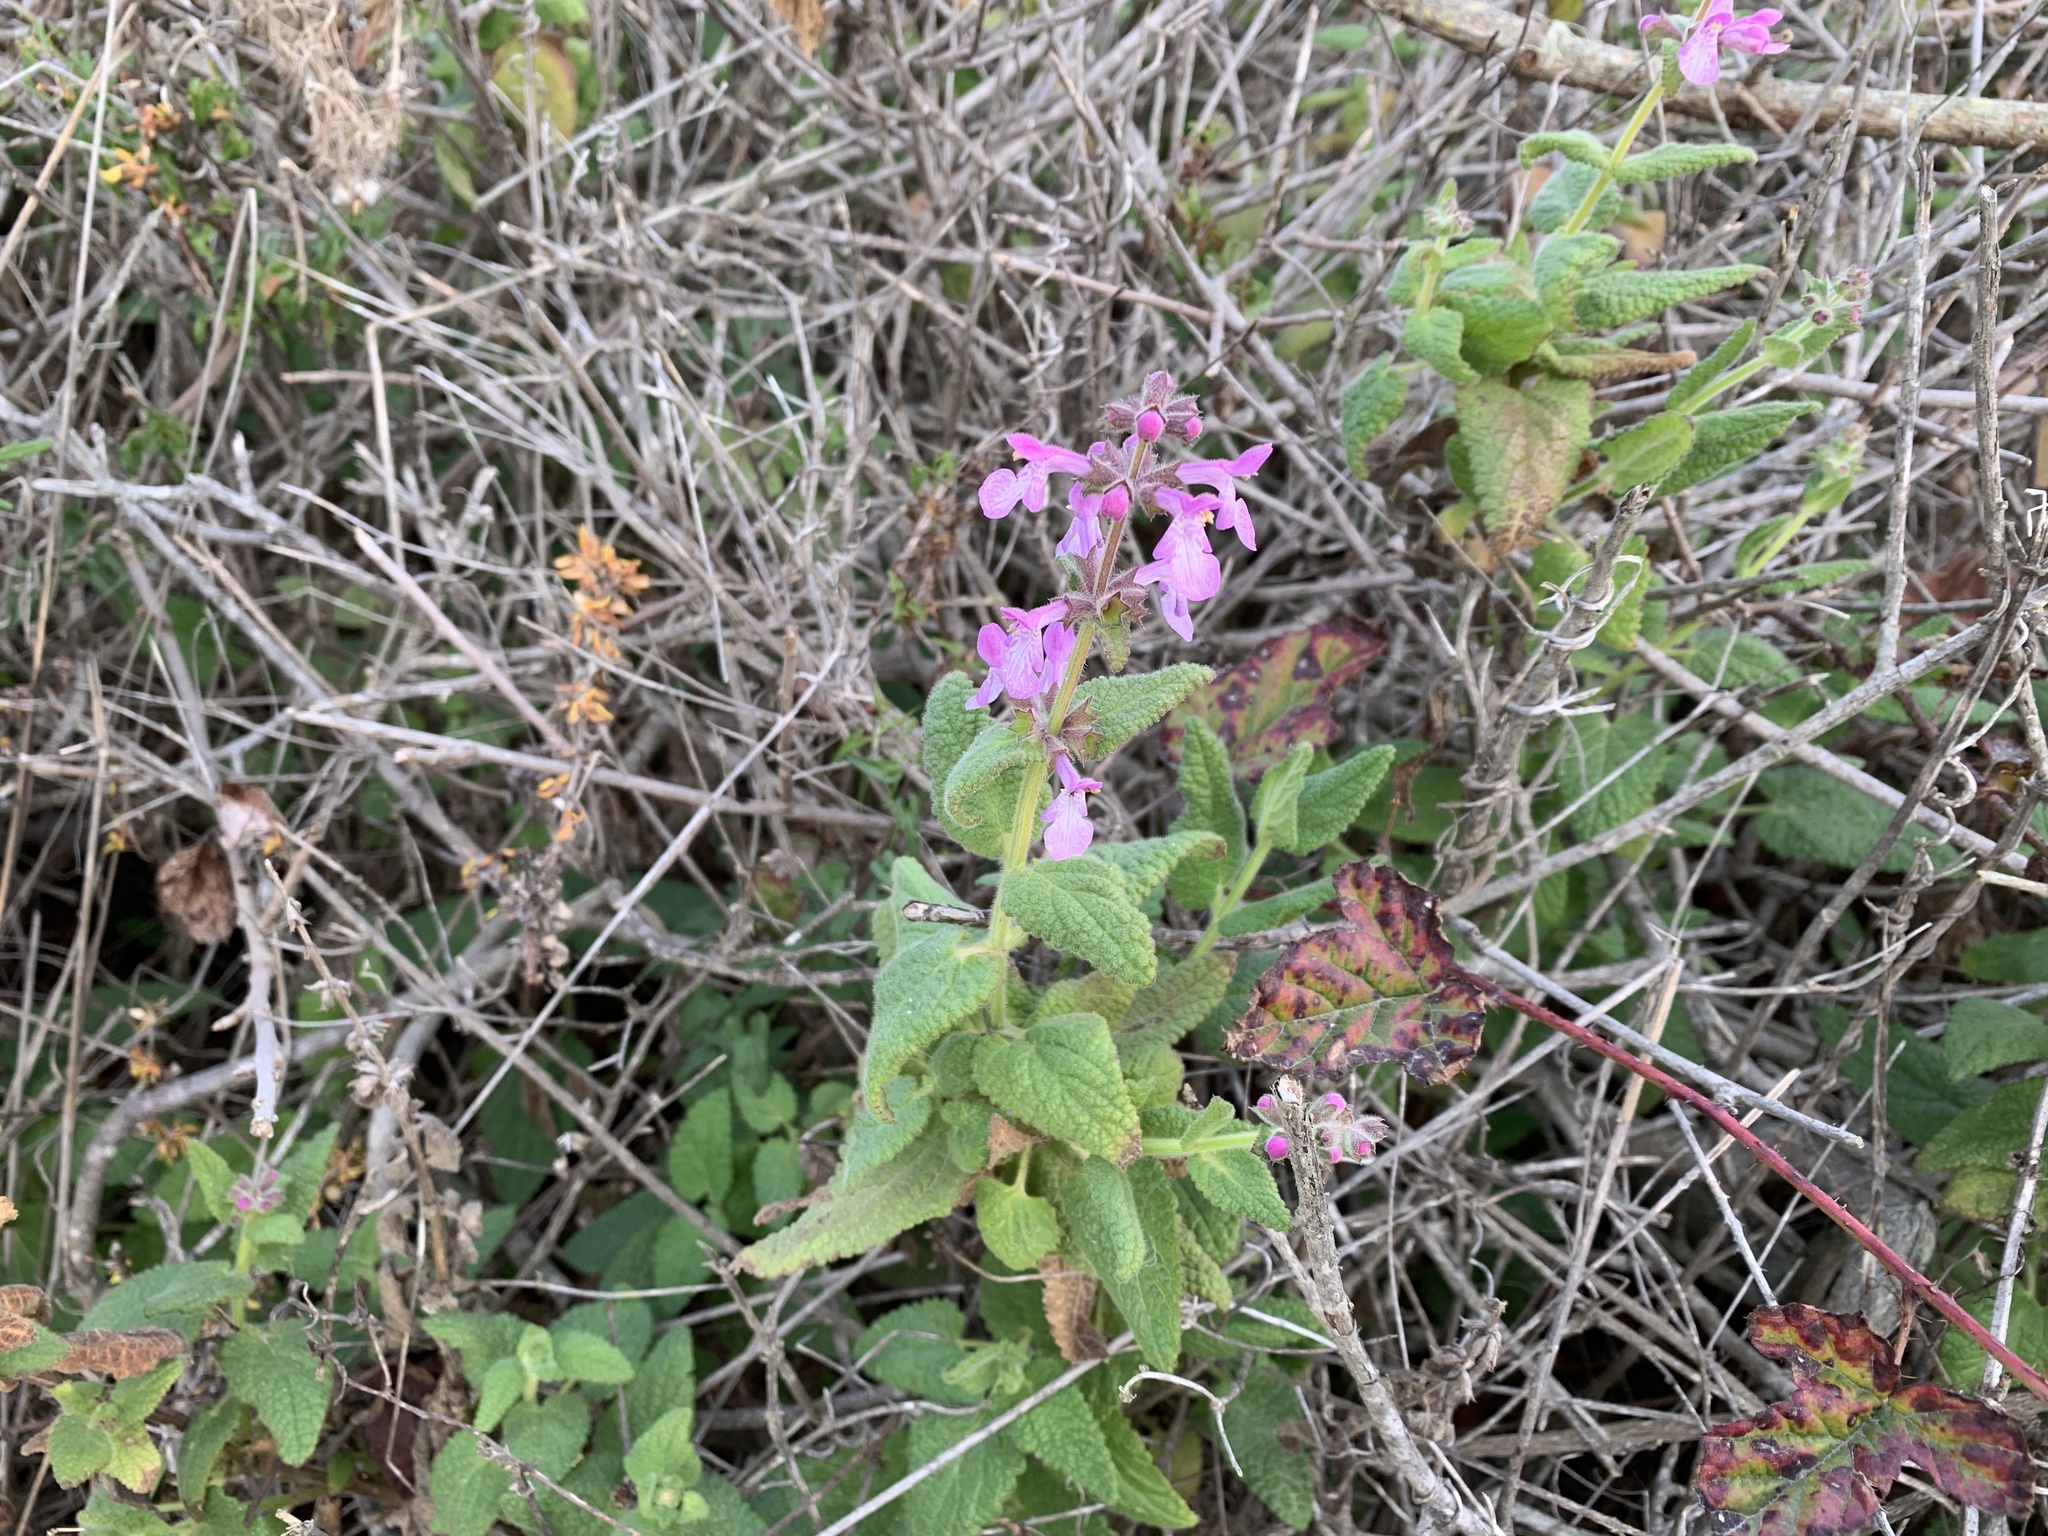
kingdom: Plantae
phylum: Tracheophyta
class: Magnoliopsida
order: Lamiales
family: Lamiaceae
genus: Stachys
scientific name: Stachys bullata
